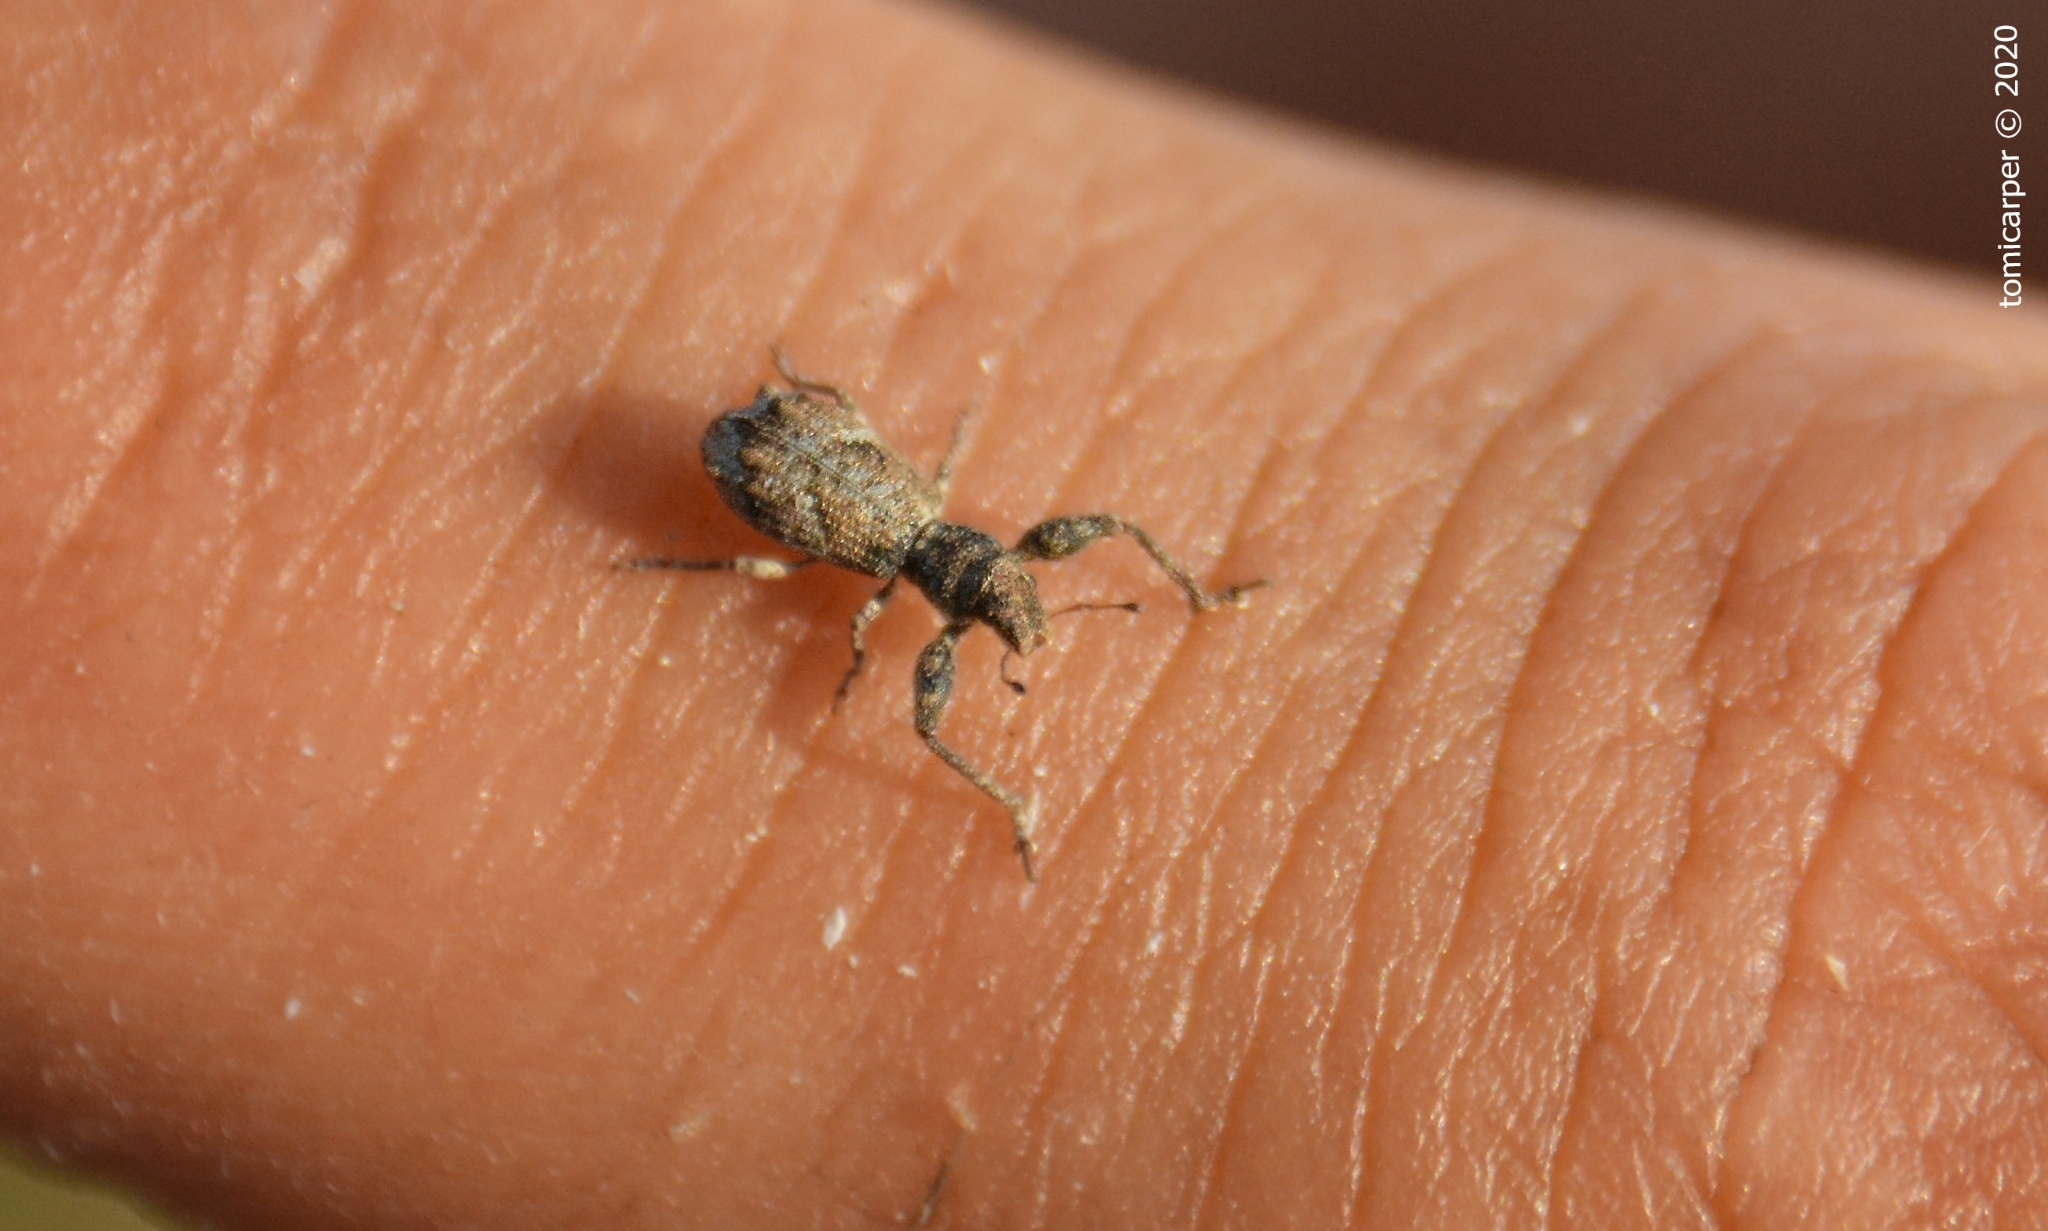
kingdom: Animalia
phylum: Arthropoda
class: Insecta
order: Coleoptera
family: Curculionidae
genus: Pandeleteius
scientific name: Pandeleteius platensis
